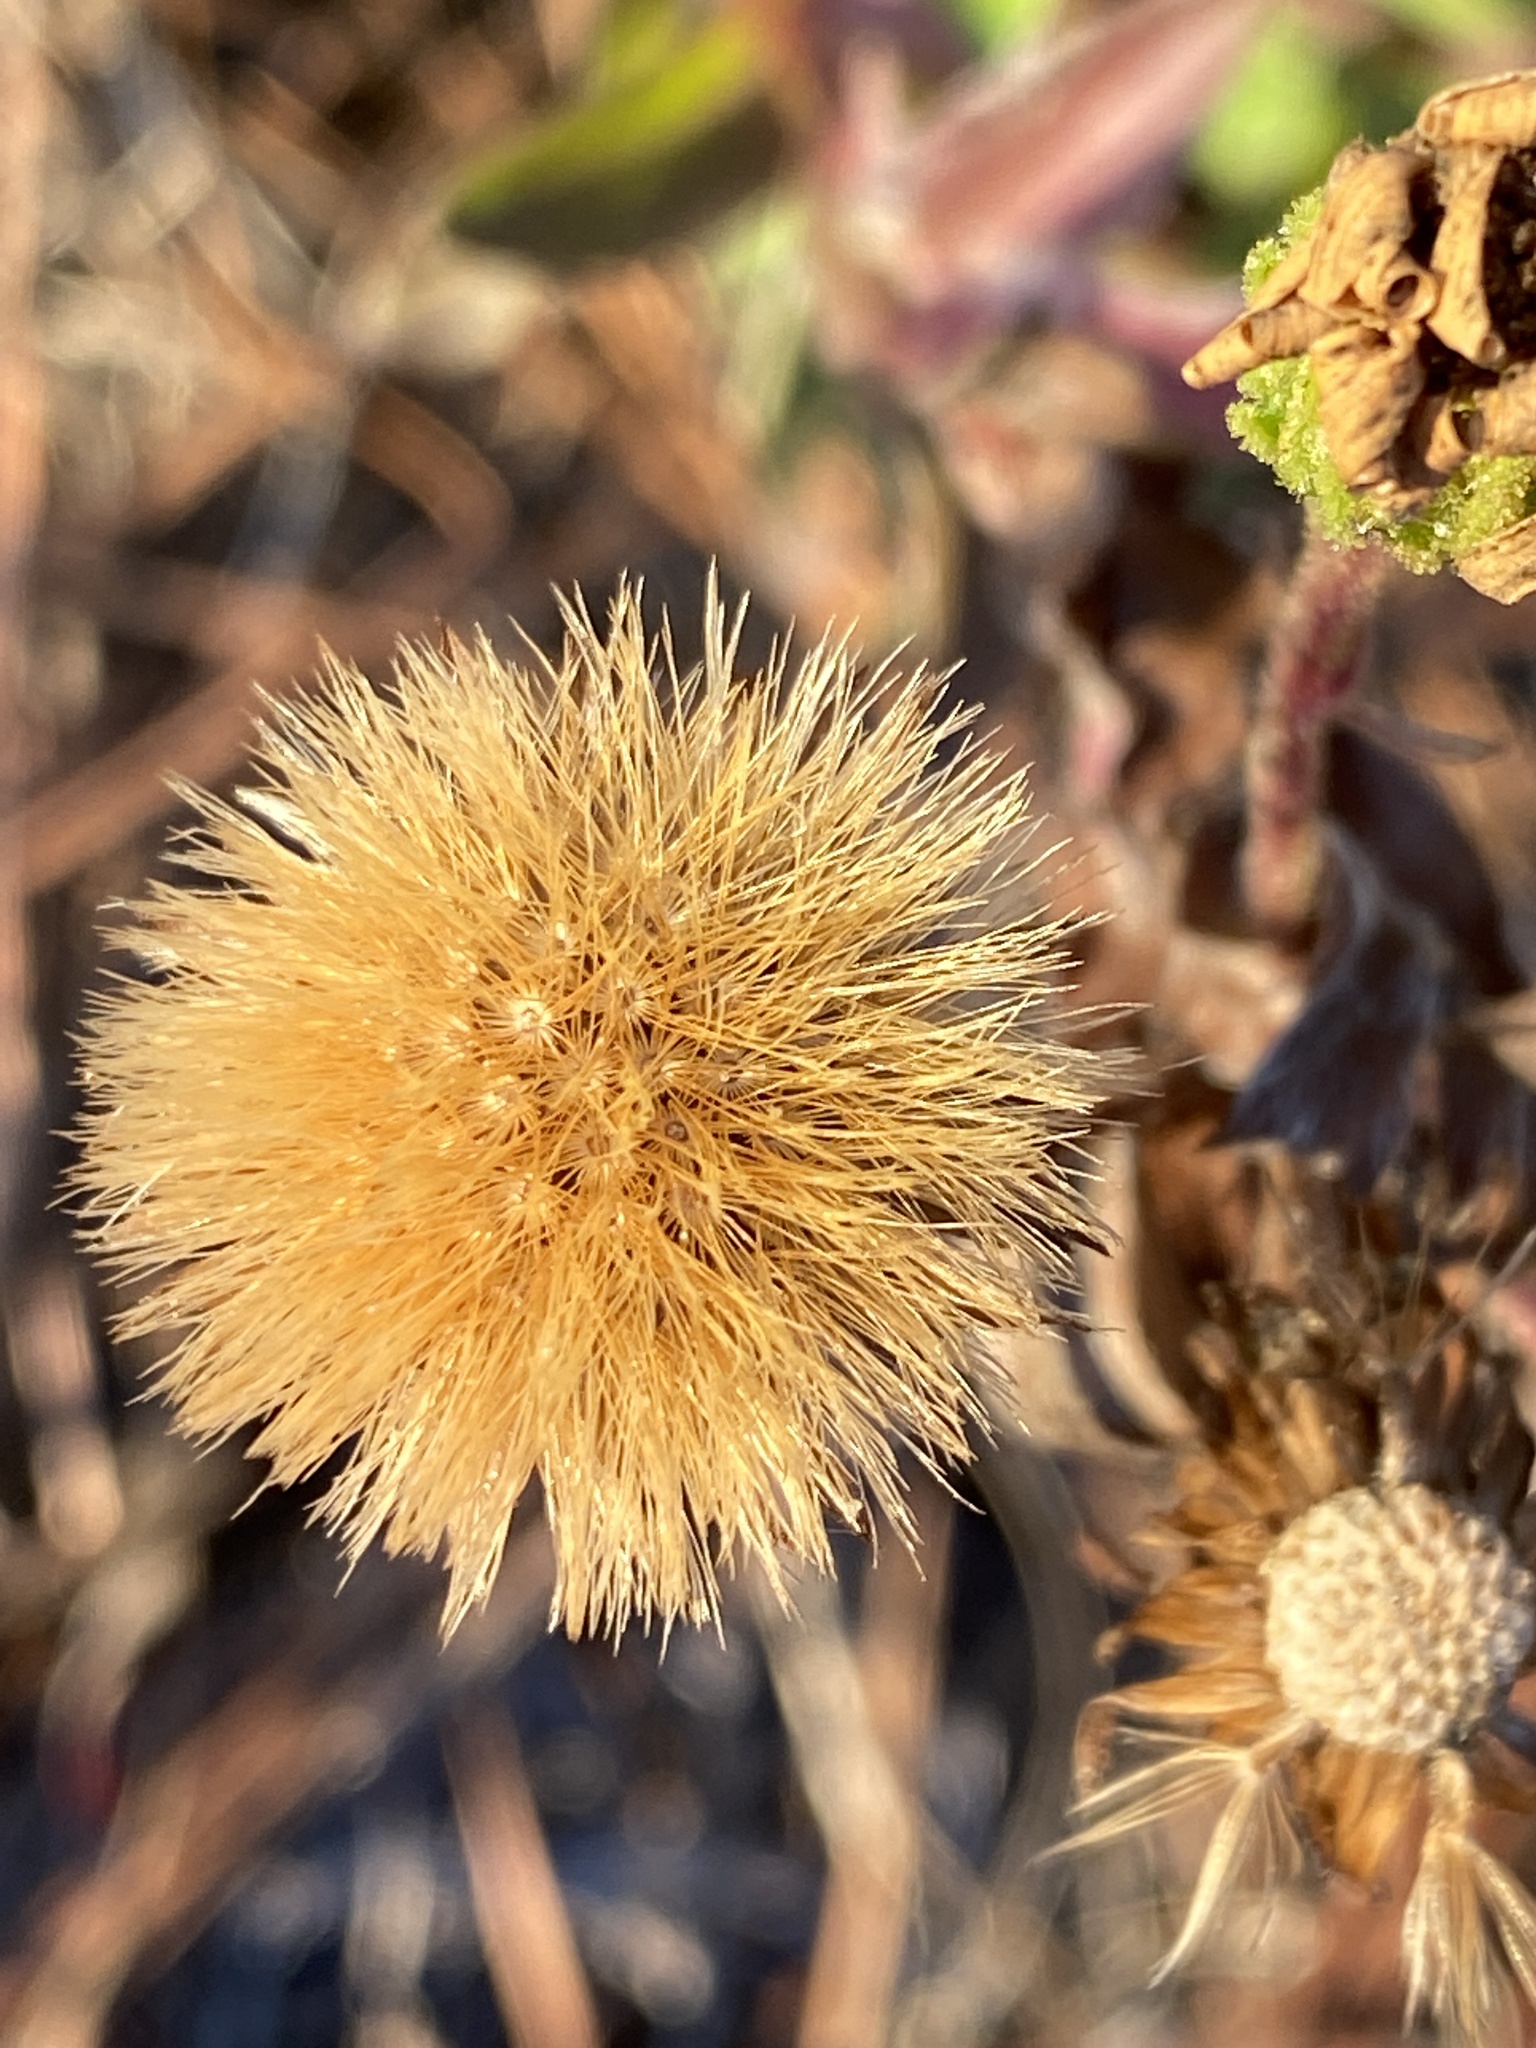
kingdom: Plantae
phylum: Tracheophyta
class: Magnoliopsida
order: Asterales
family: Asteraceae
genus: Chrysopsis
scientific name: Chrysopsis mariana
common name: Maryland golden-aster
